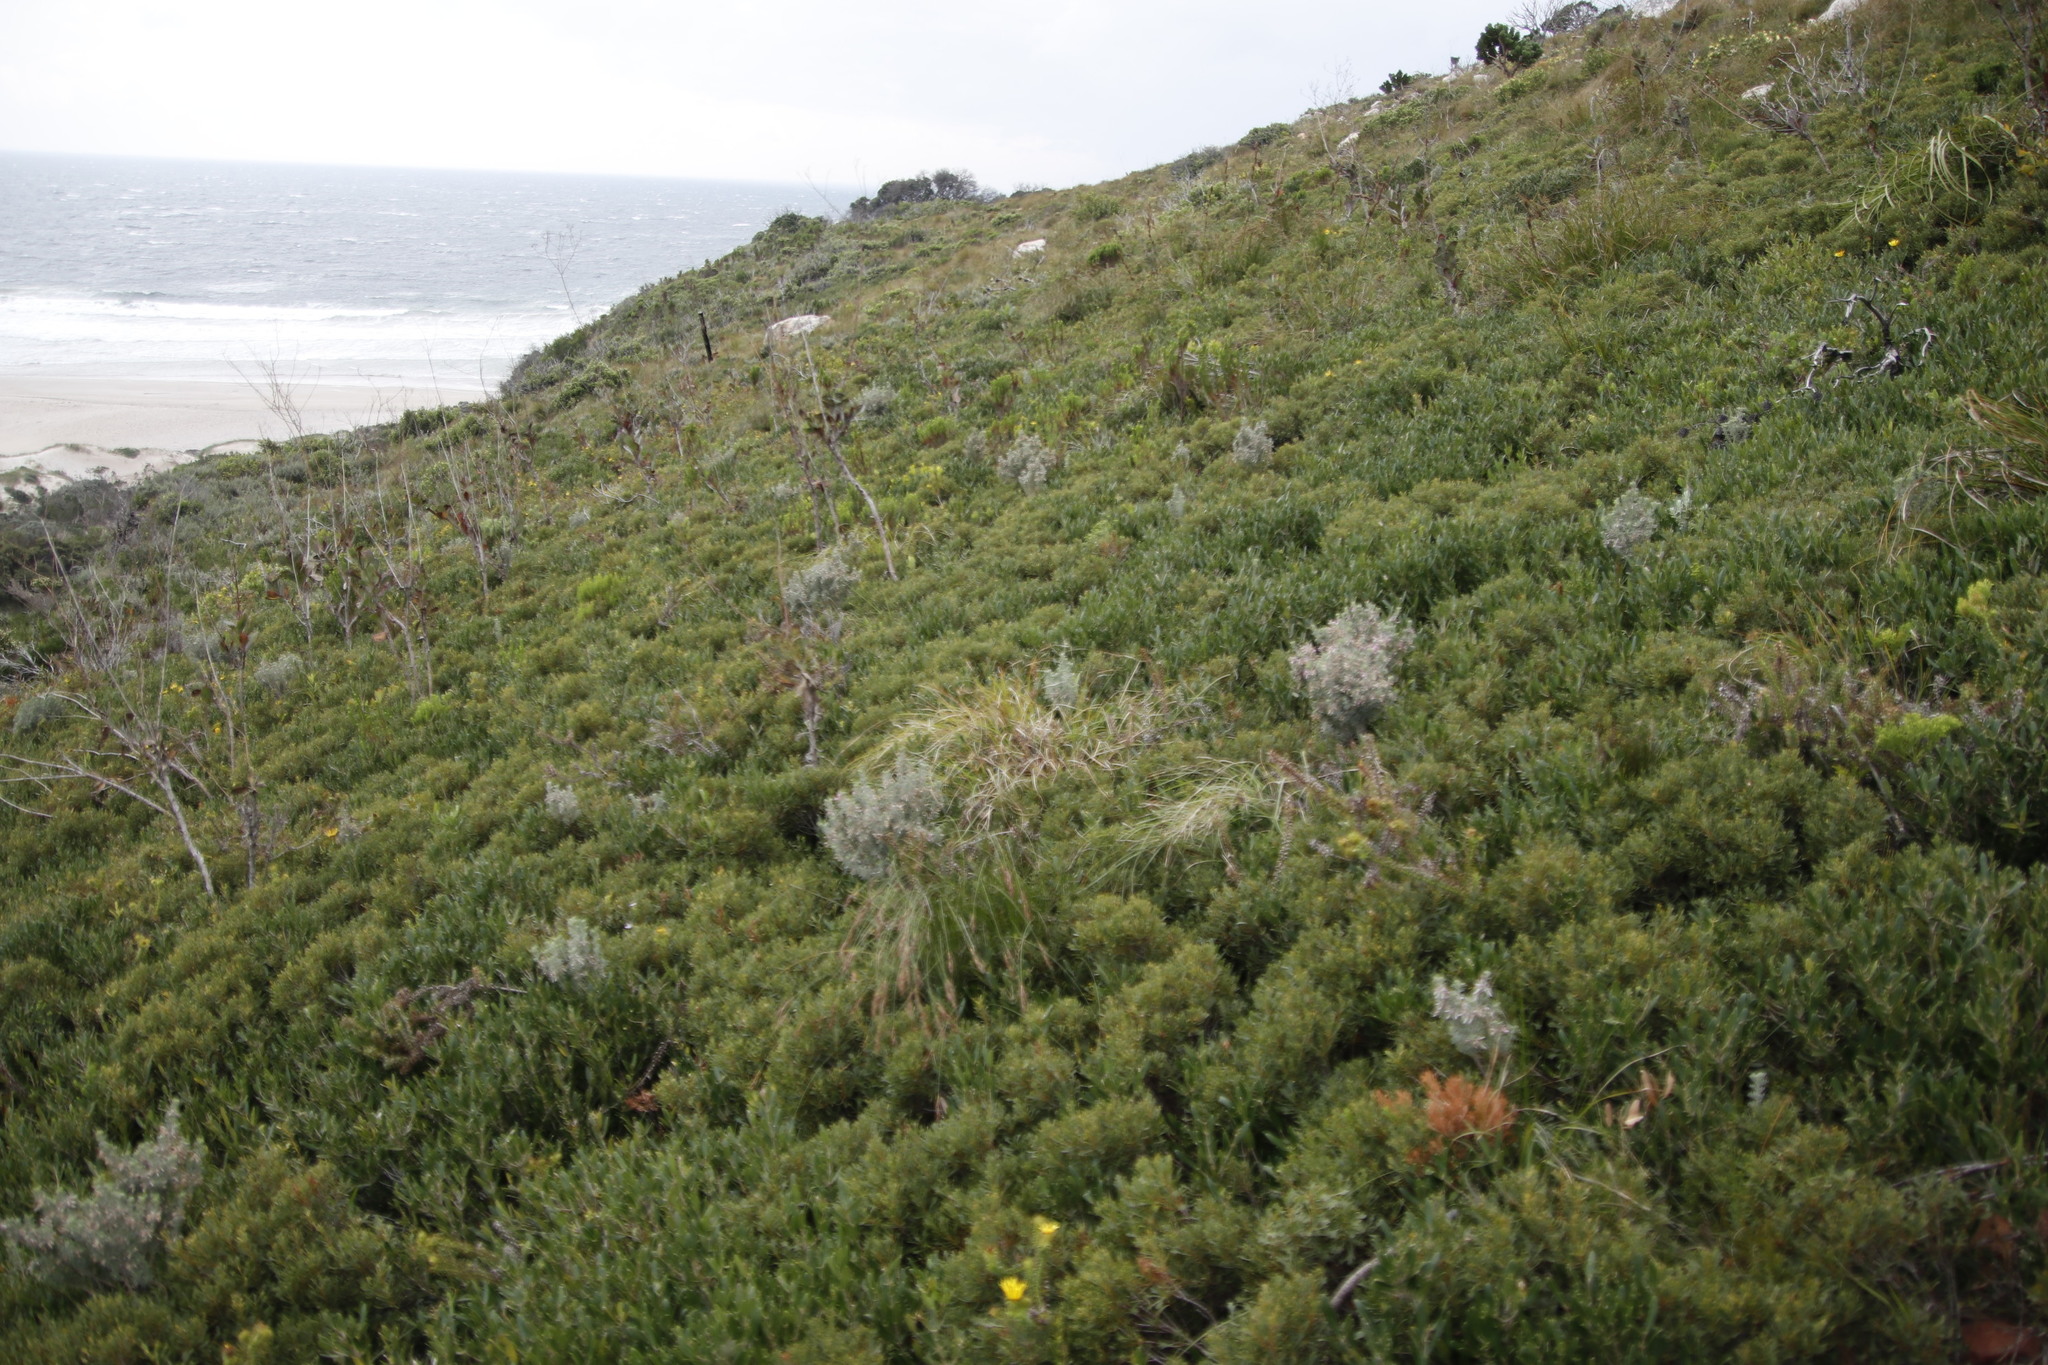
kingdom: Plantae
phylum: Tracheophyta
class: Magnoliopsida
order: Fabales
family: Fabaceae
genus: Indigofera
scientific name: Indigofera brachystachya
